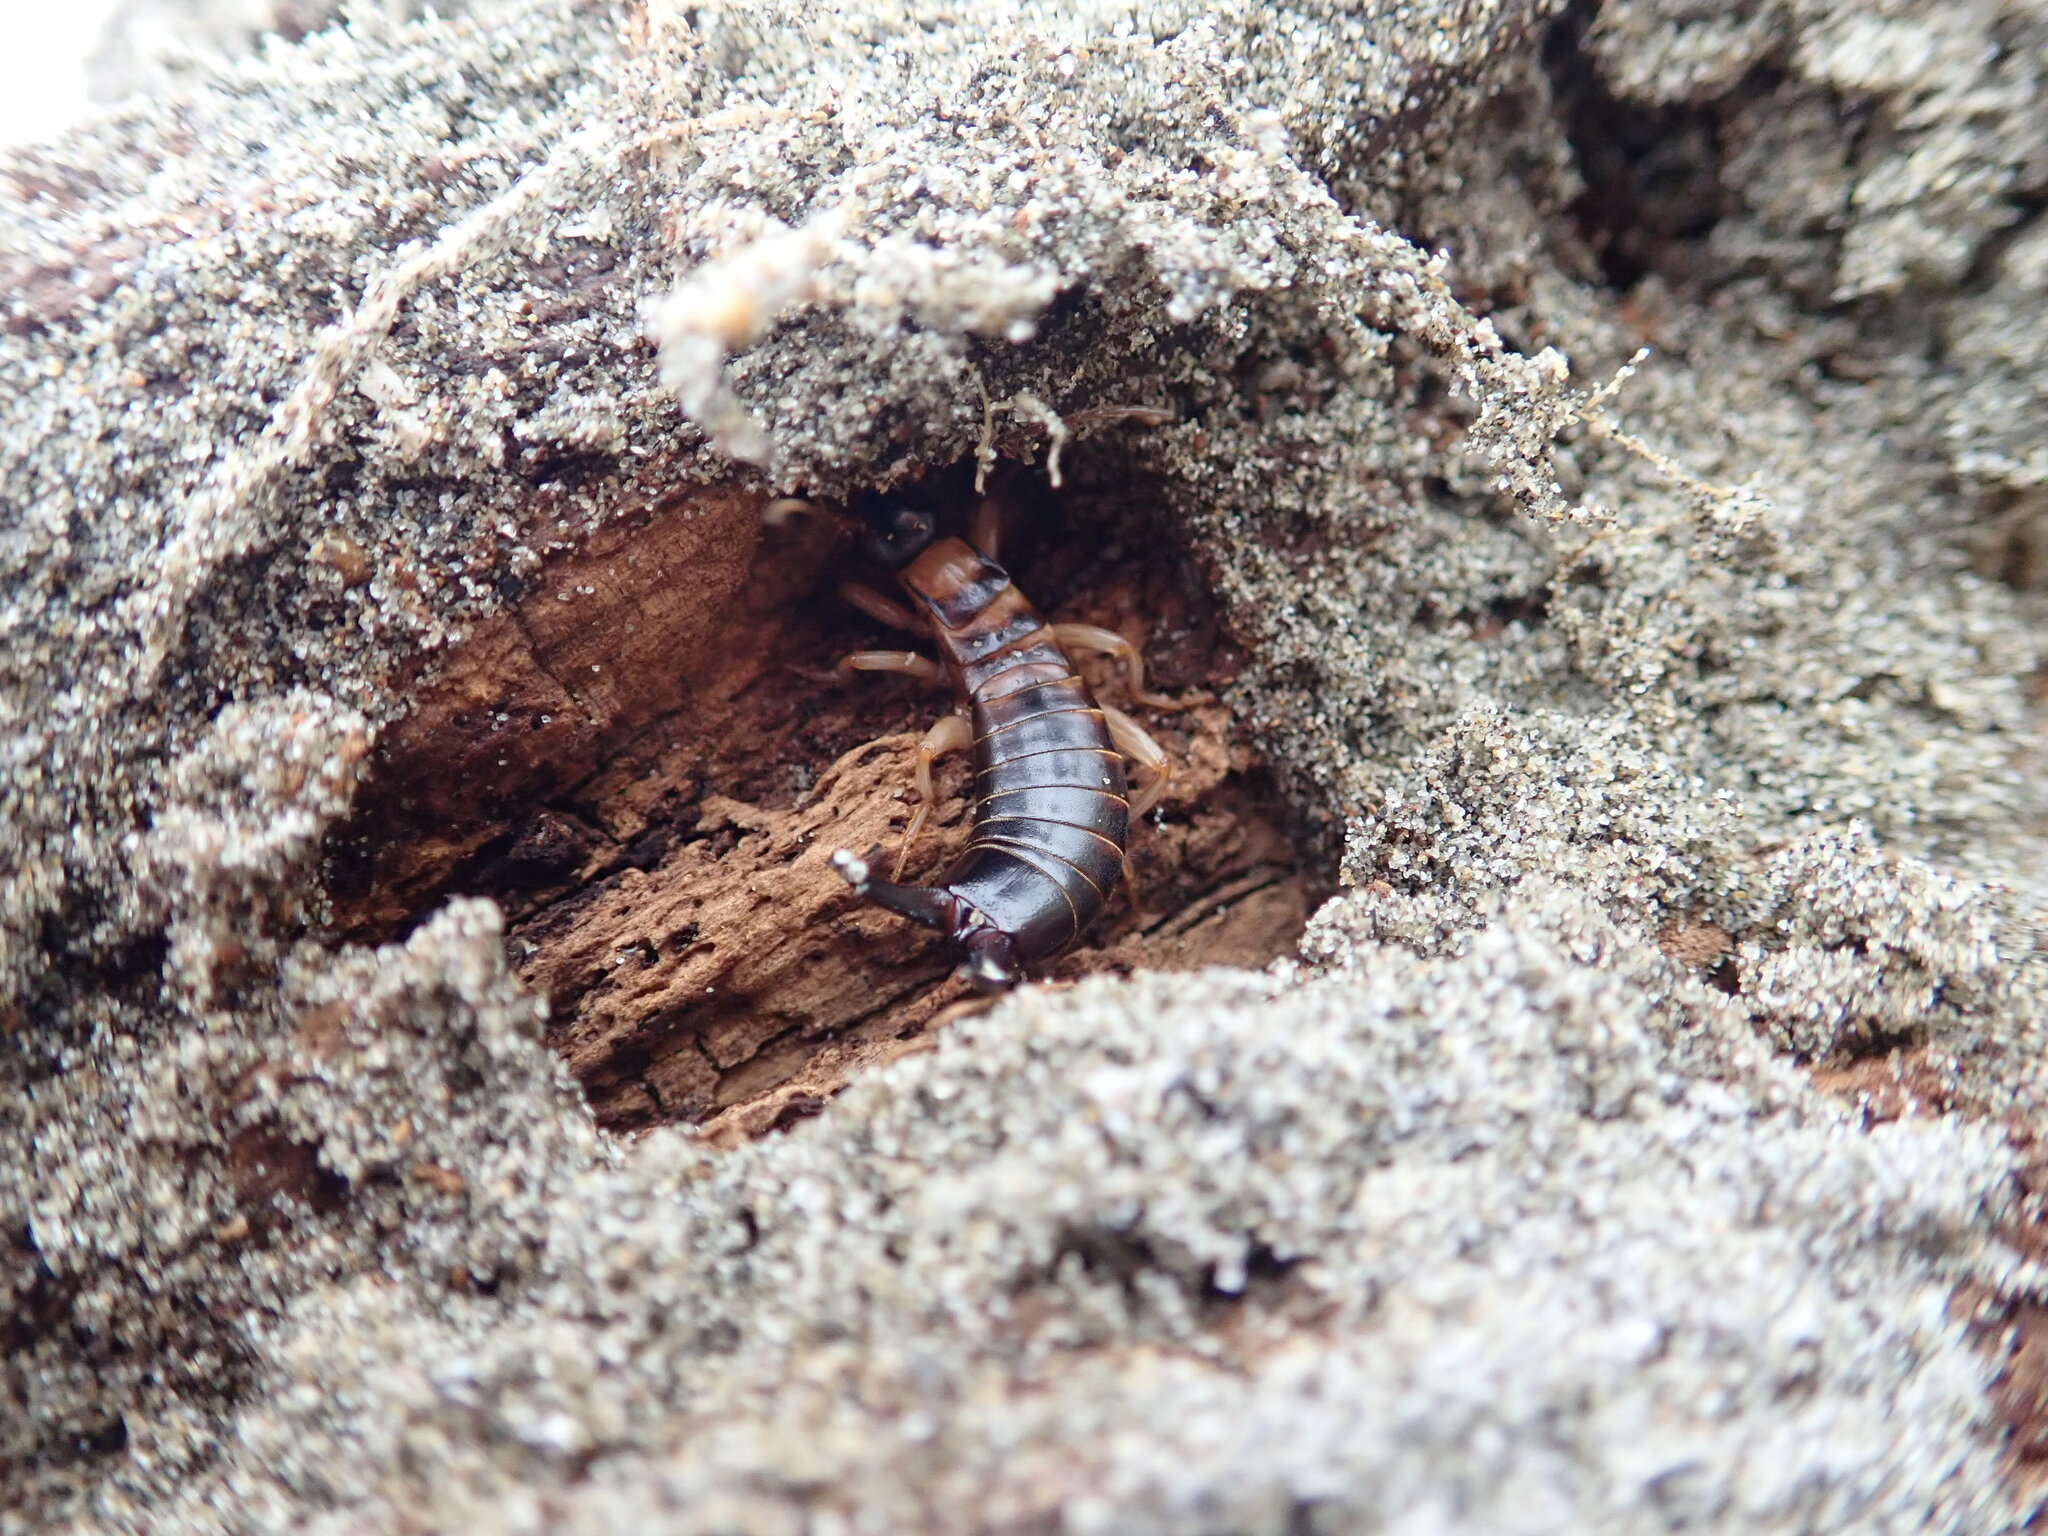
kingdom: Animalia
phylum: Arthropoda
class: Insecta
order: Dermaptera
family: Anisolabididae
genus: Anisolabis
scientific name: Anisolabis littorea
